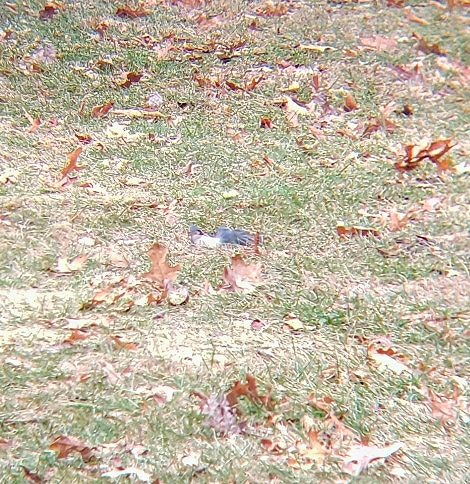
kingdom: Animalia
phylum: Chordata
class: Aves
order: Passeriformes
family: Paridae
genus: Baeolophus
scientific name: Baeolophus bicolor
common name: Tufted titmouse
